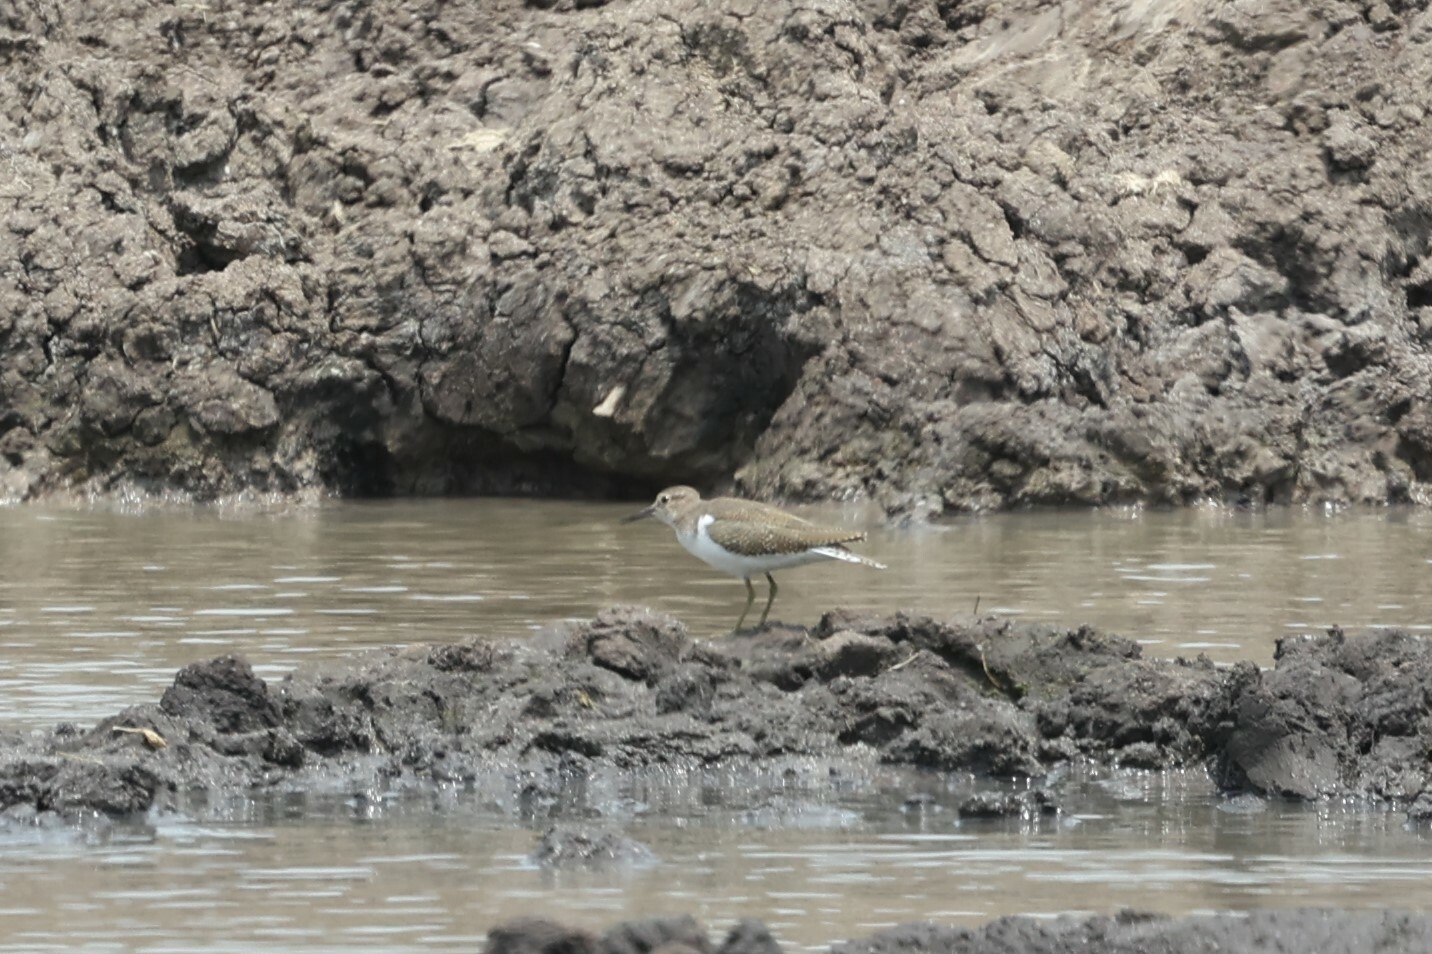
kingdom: Animalia
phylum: Chordata
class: Aves
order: Charadriiformes
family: Scolopacidae
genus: Actitis
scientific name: Actitis hypoleucos
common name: Common sandpiper
